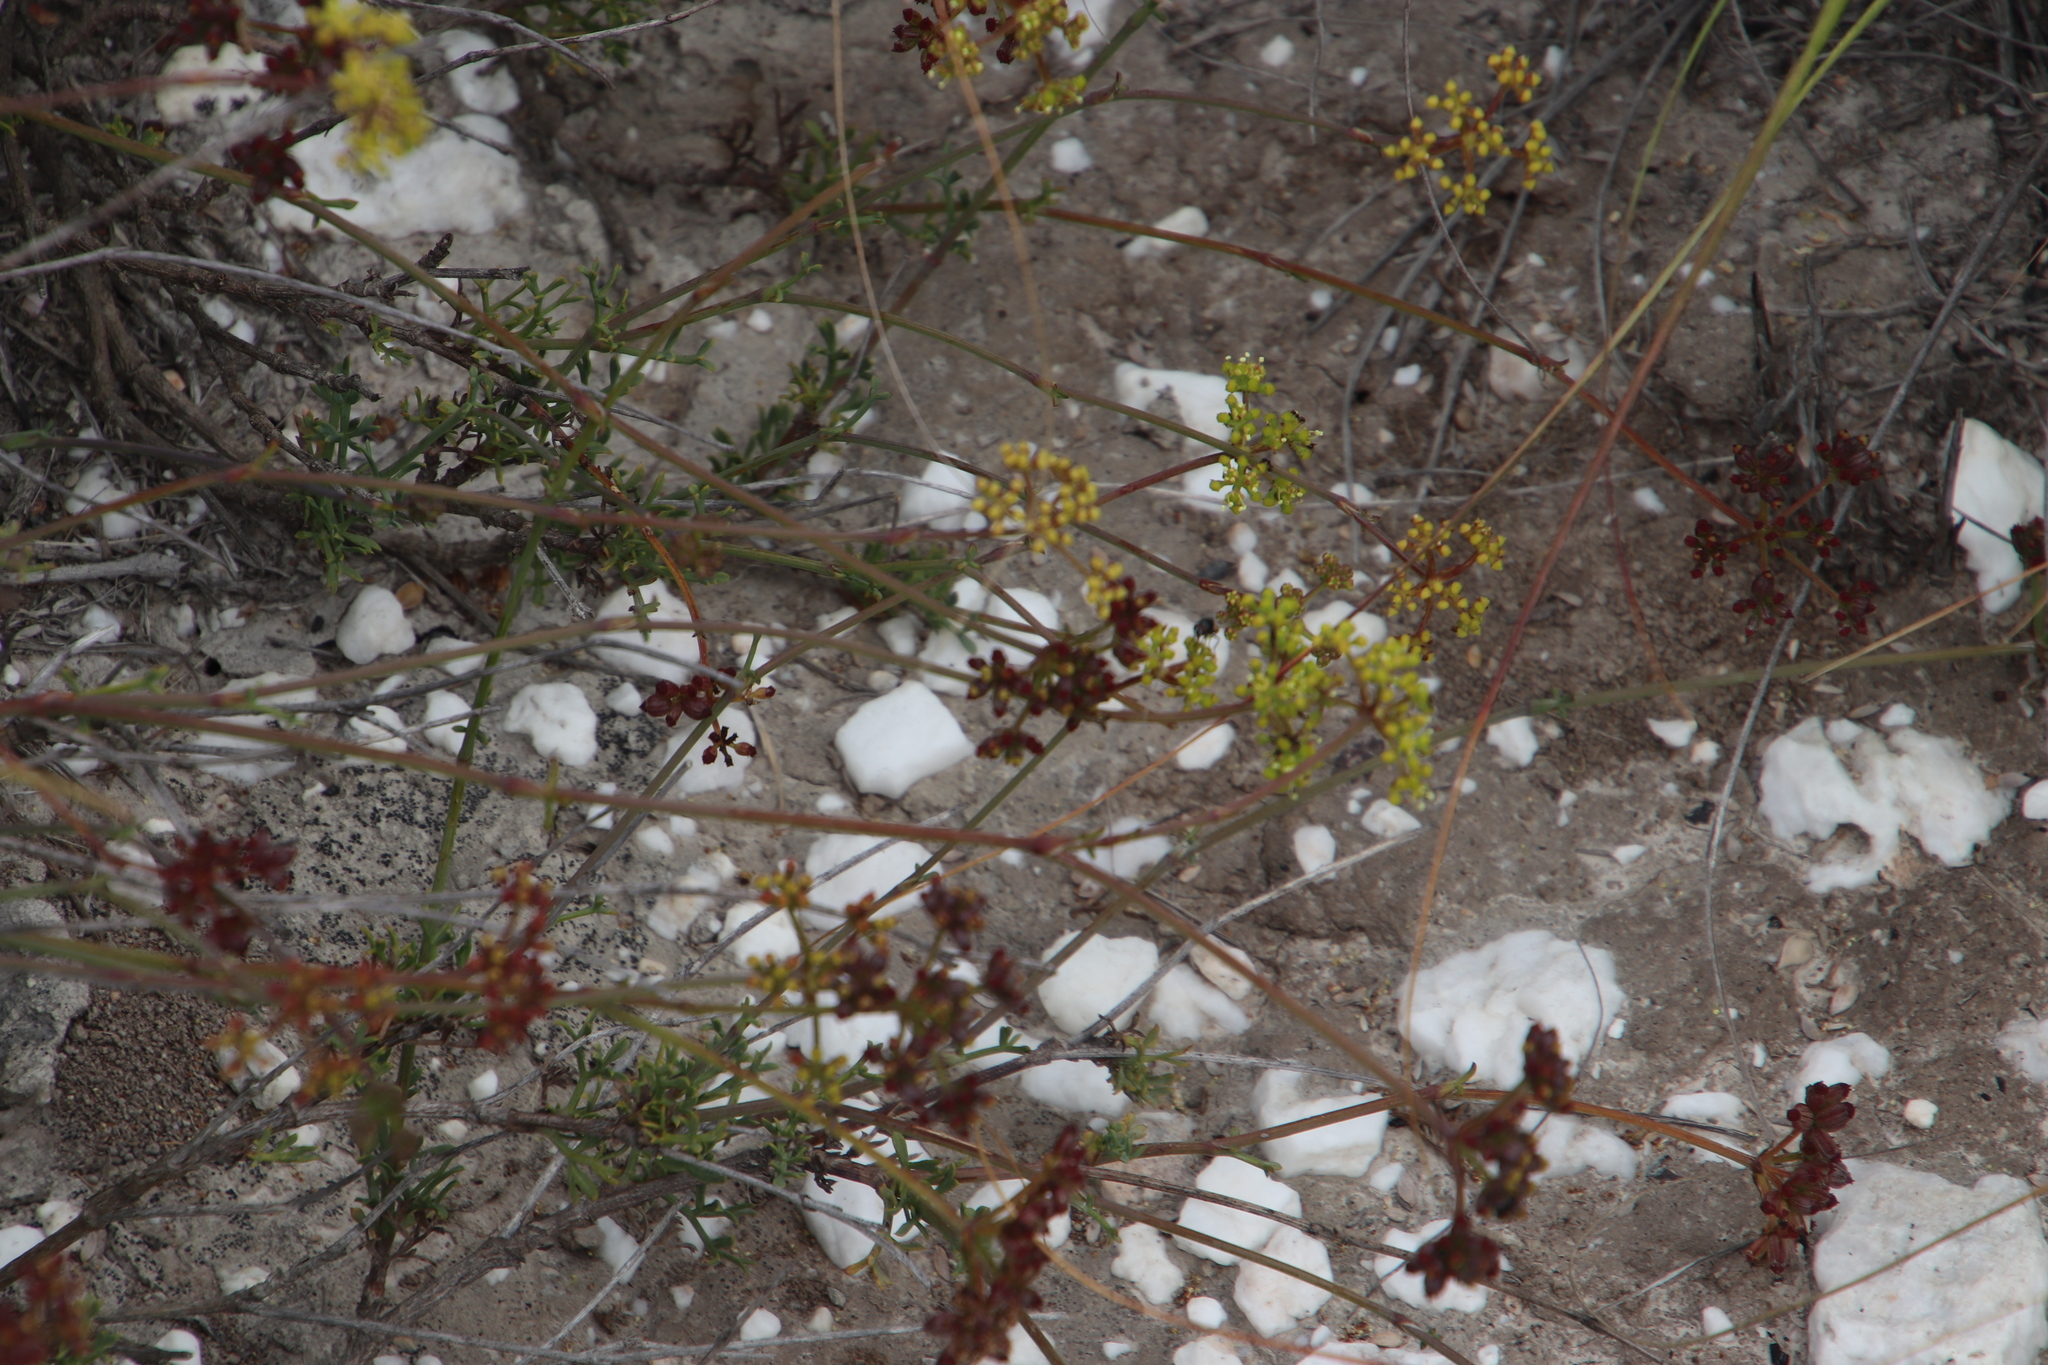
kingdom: Plantae
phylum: Tracheophyta
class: Magnoliopsida
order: Apiales
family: Apiaceae
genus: Notobubon
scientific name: Notobubon collinum
